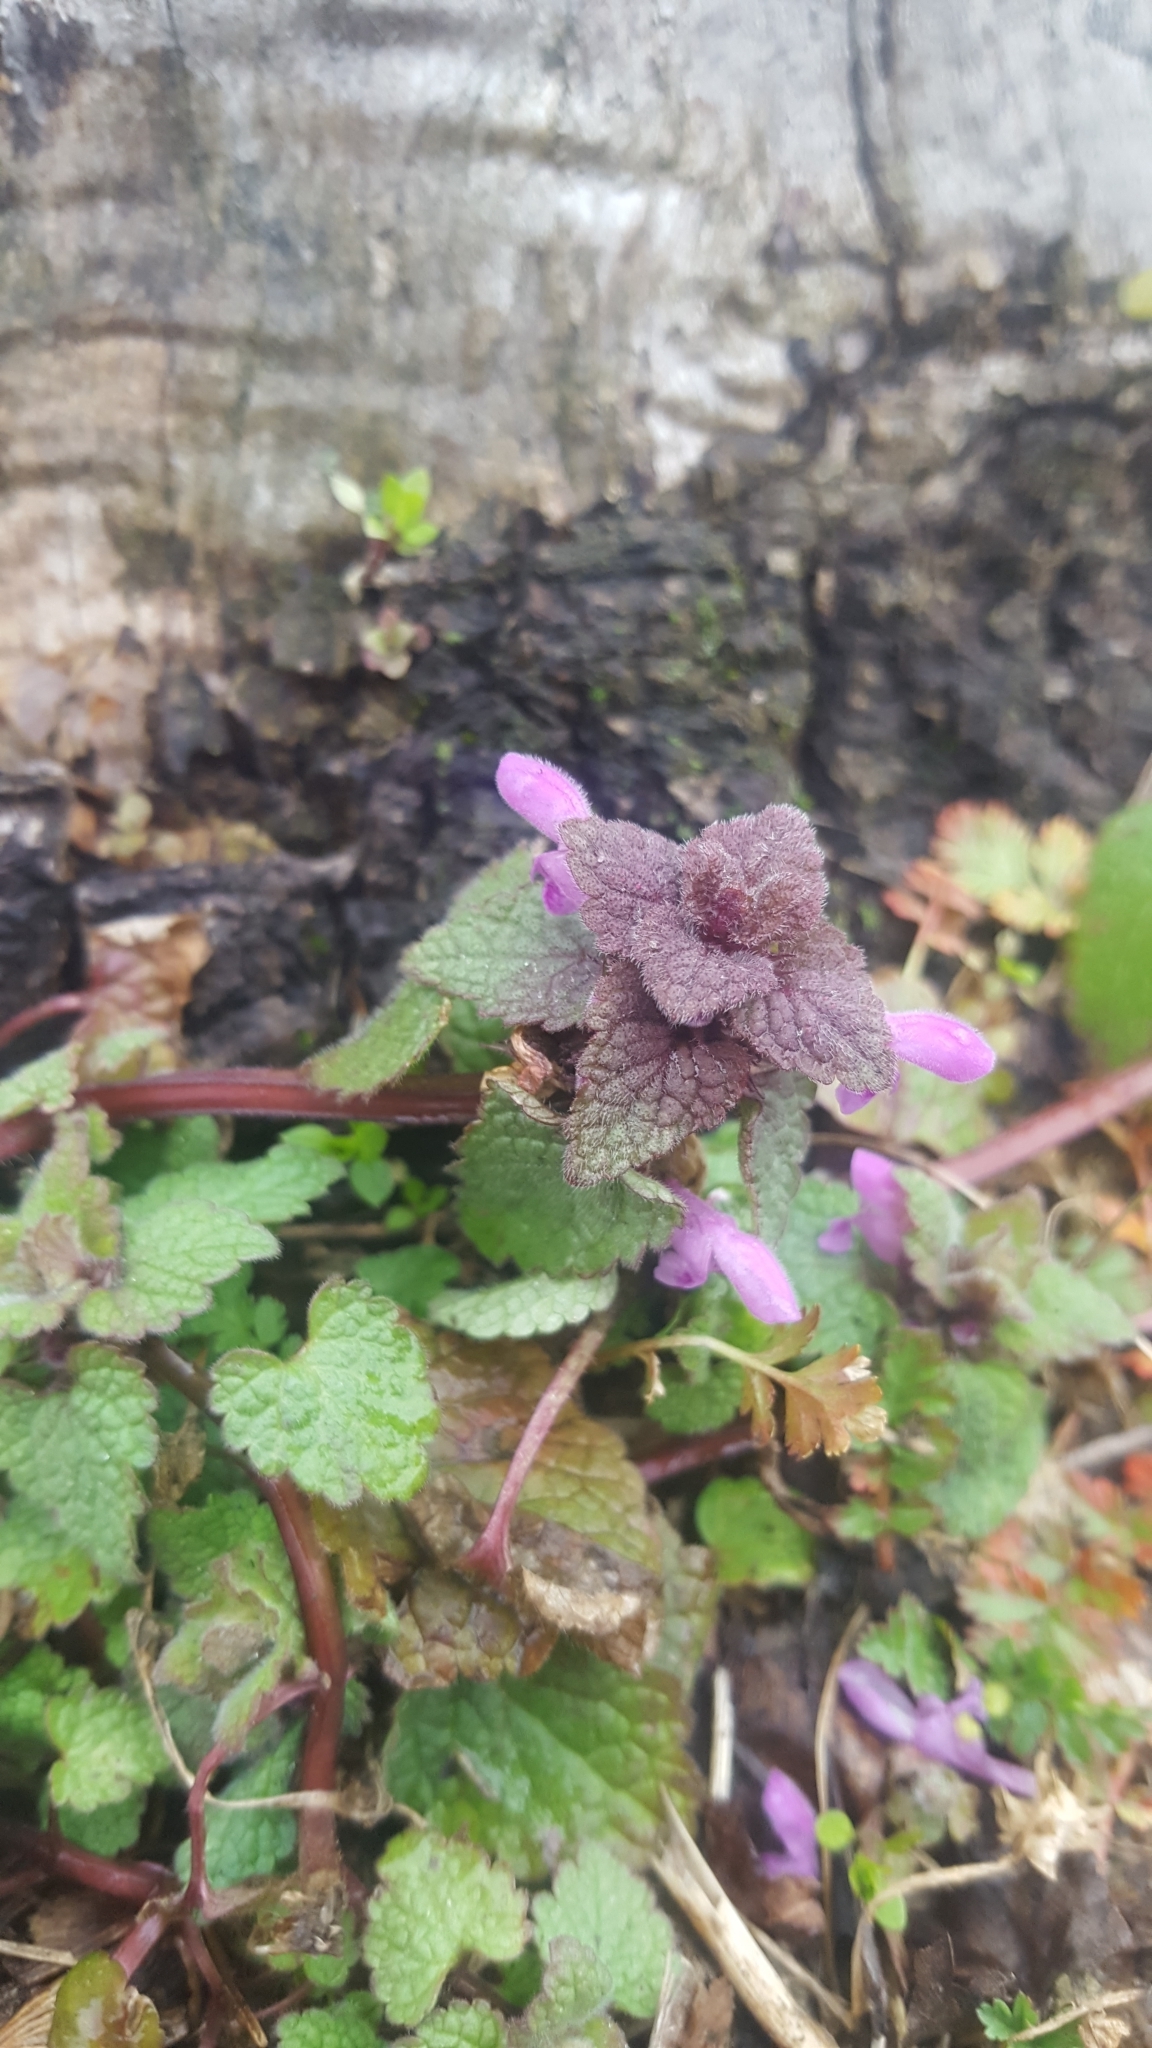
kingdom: Plantae
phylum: Tracheophyta
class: Magnoliopsida
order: Lamiales
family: Lamiaceae
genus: Lamium
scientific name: Lamium purpureum
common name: Red dead-nettle
